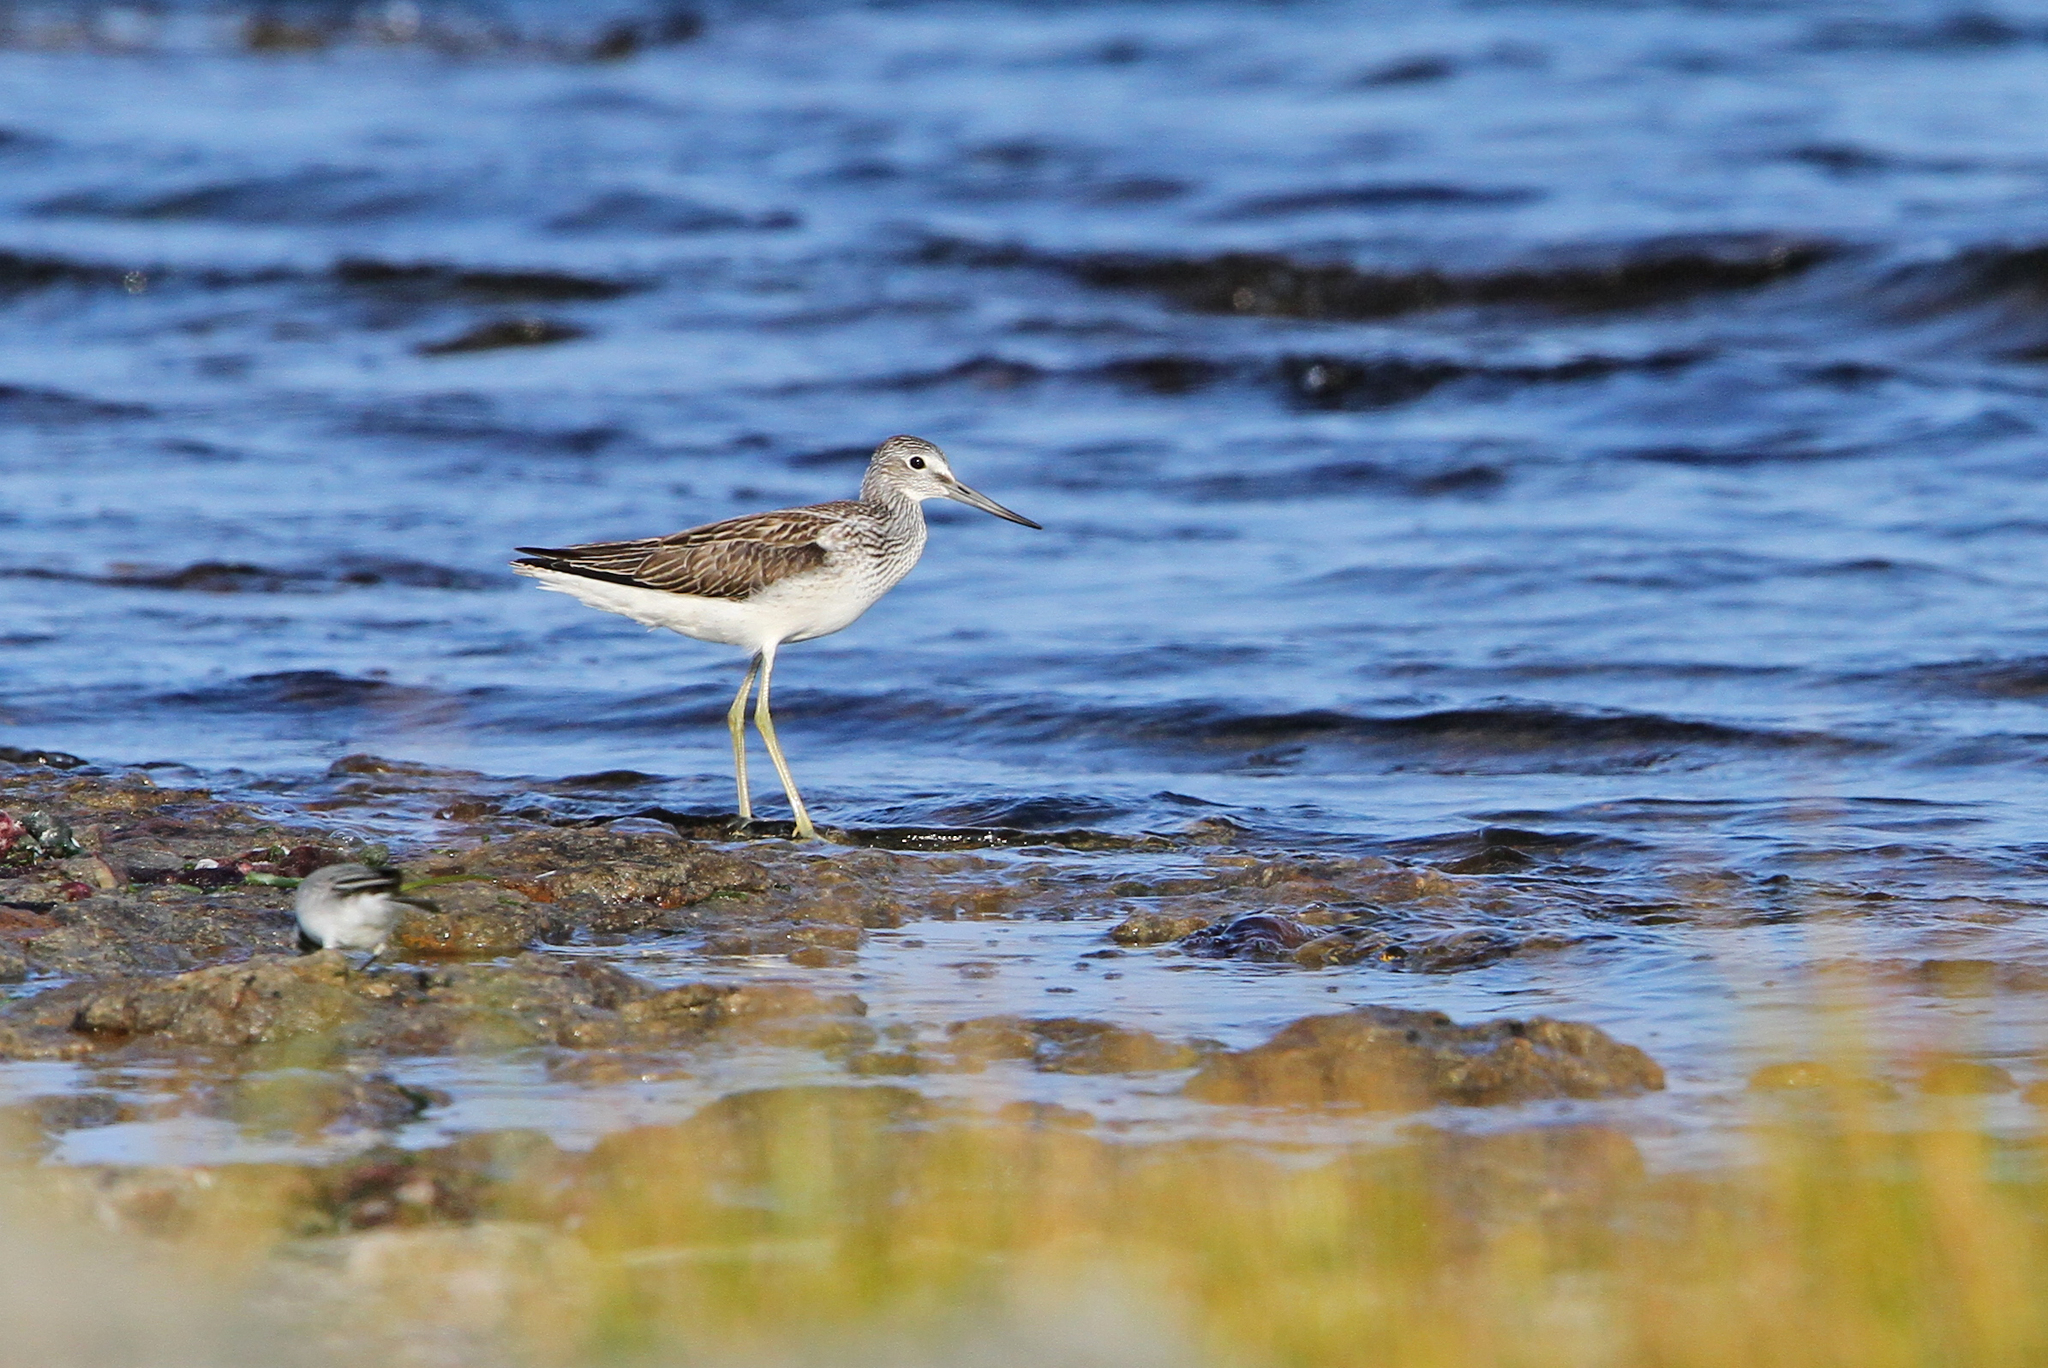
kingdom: Animalia
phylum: Chordata
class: Aves
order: Charadriiformes
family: Scolopacidae
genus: Tringa
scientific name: Tringa nebularia
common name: Common greenshank
